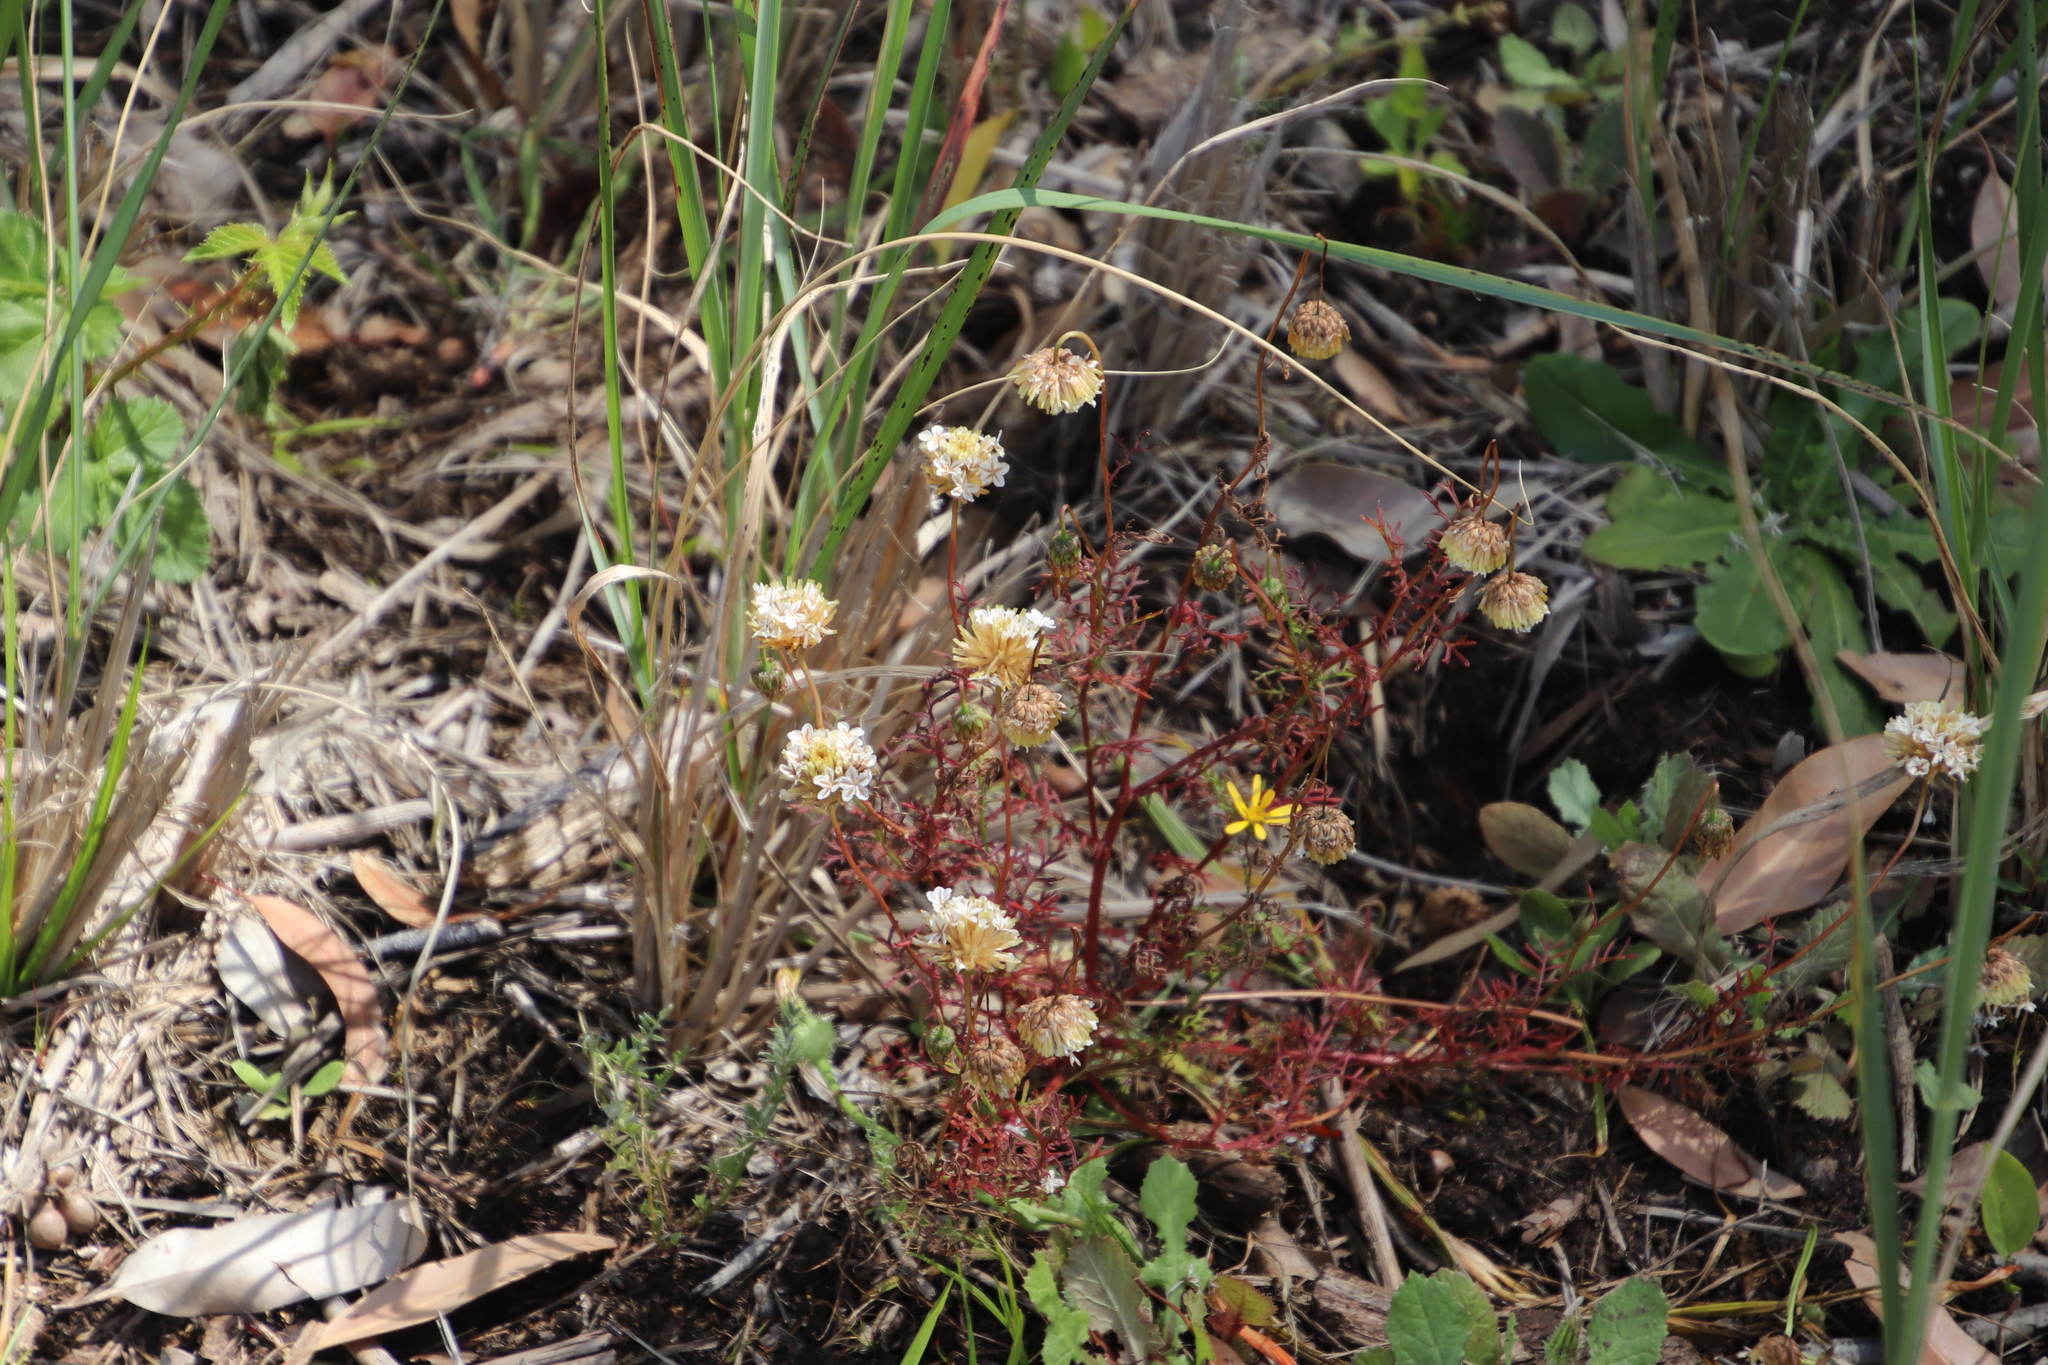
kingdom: Plantae
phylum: Tracheophyta
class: Magnoliopsida
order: Asterales
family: Asteraceae
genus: Ursinia
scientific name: Ursinia anthemoides
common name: Ursinia
